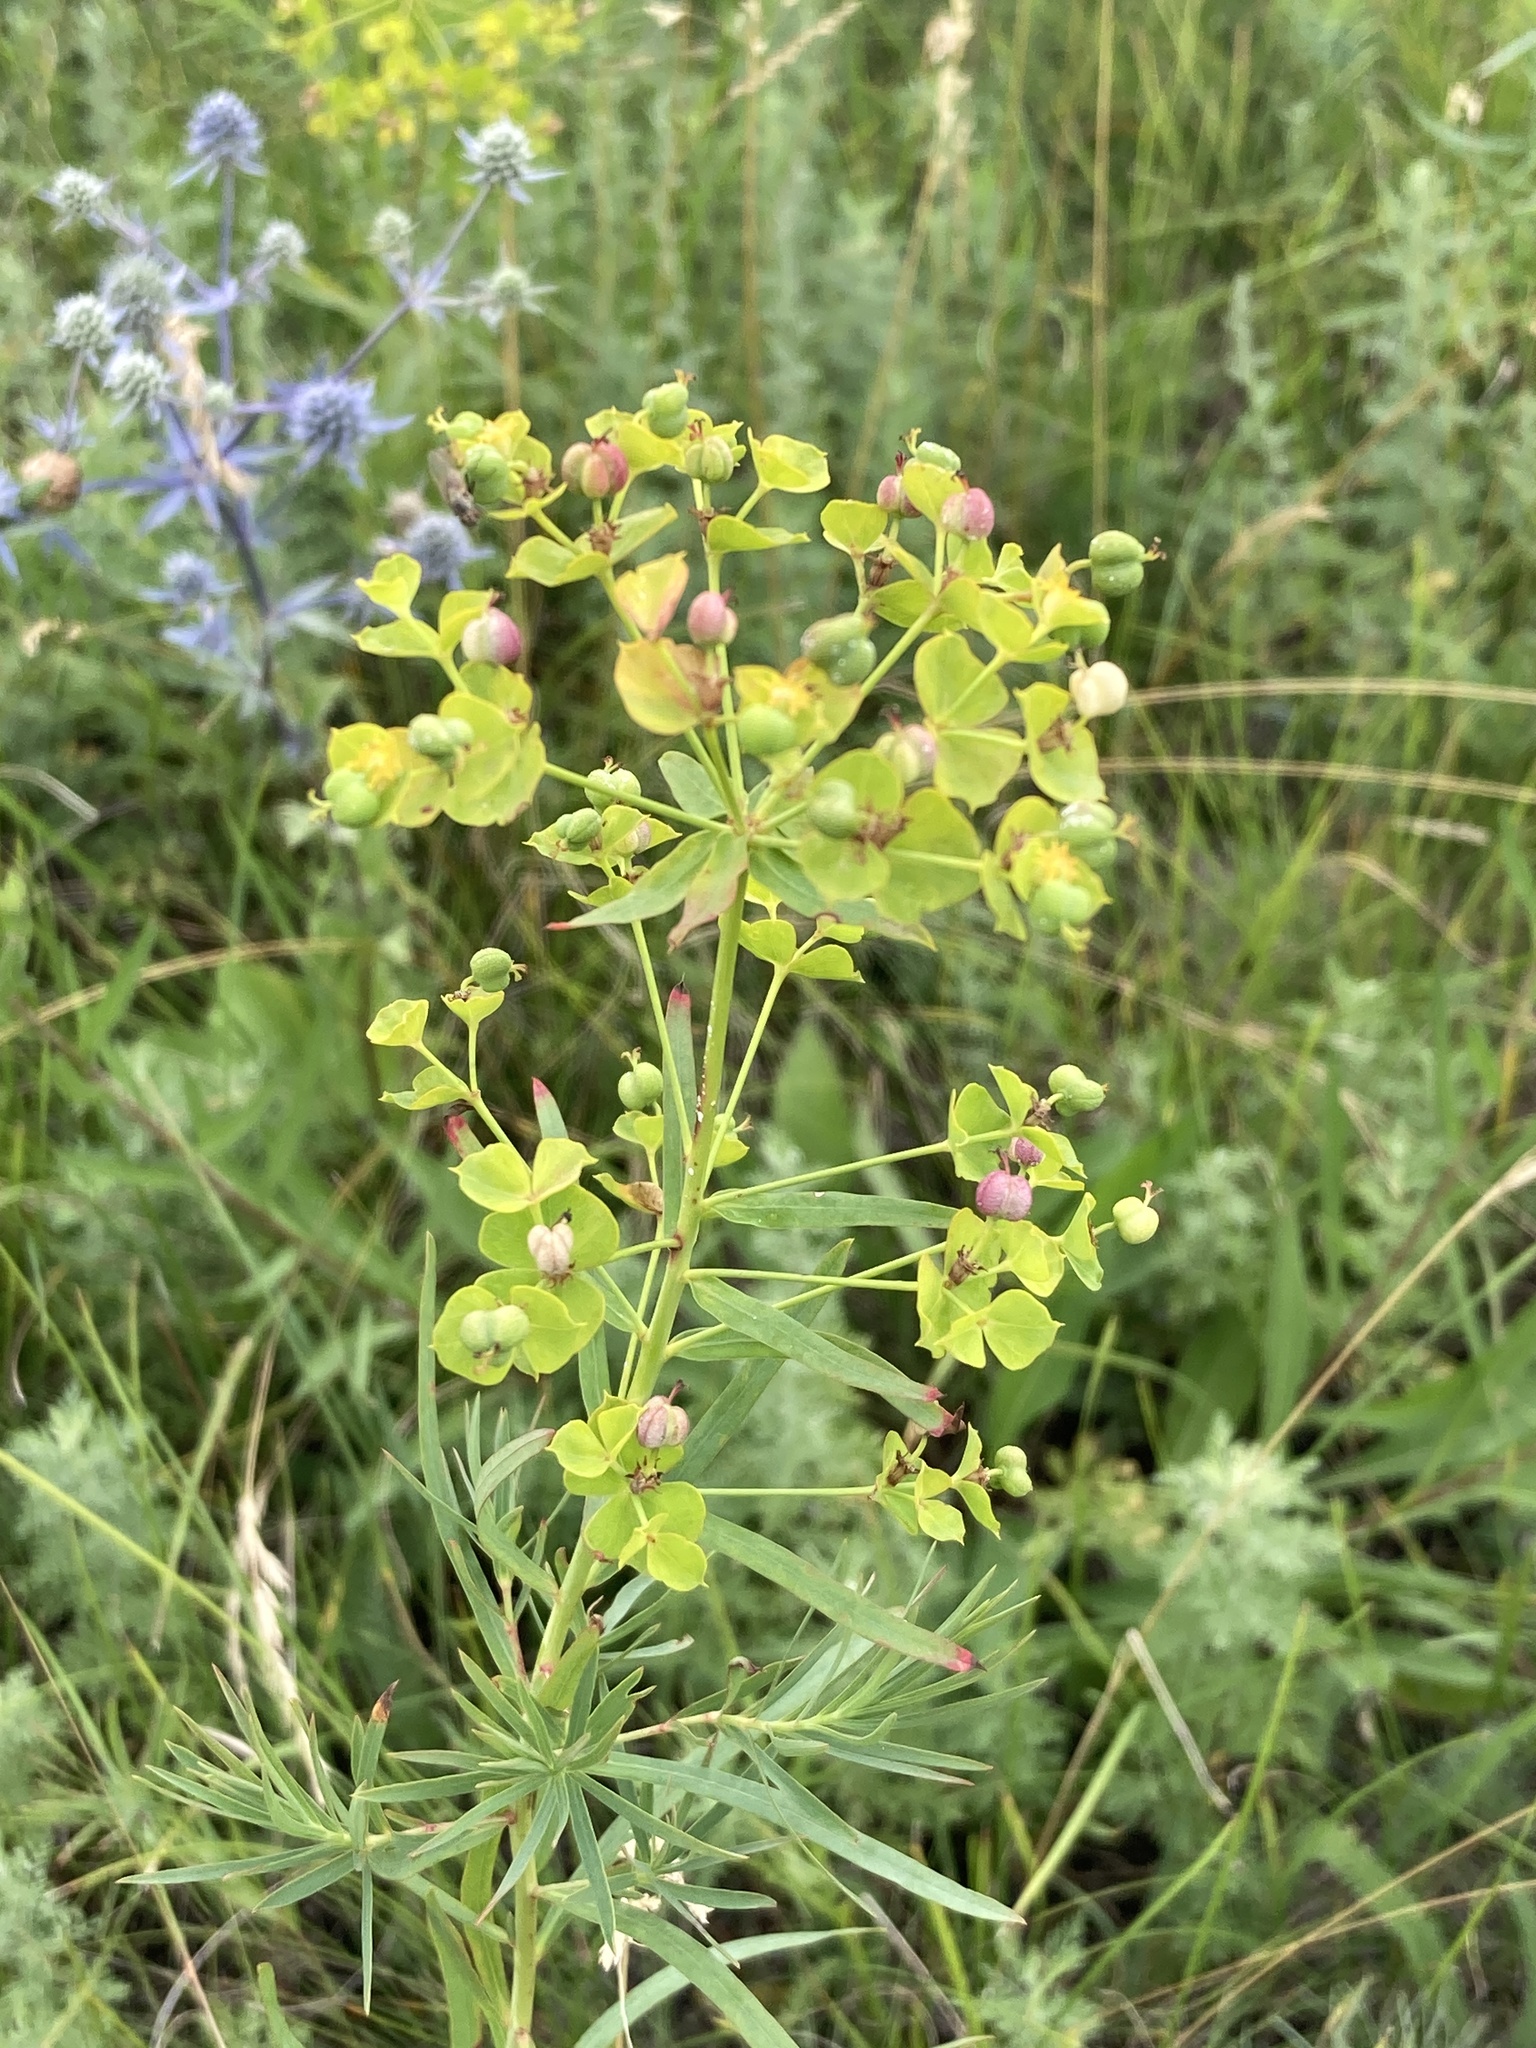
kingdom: Plantae
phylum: Tracheophyta
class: Magnoliopsida
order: Malpighiales
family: Euphorbiaceae
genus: Euphorbia
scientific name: Euphorbia virgata
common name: Leafy spurge
